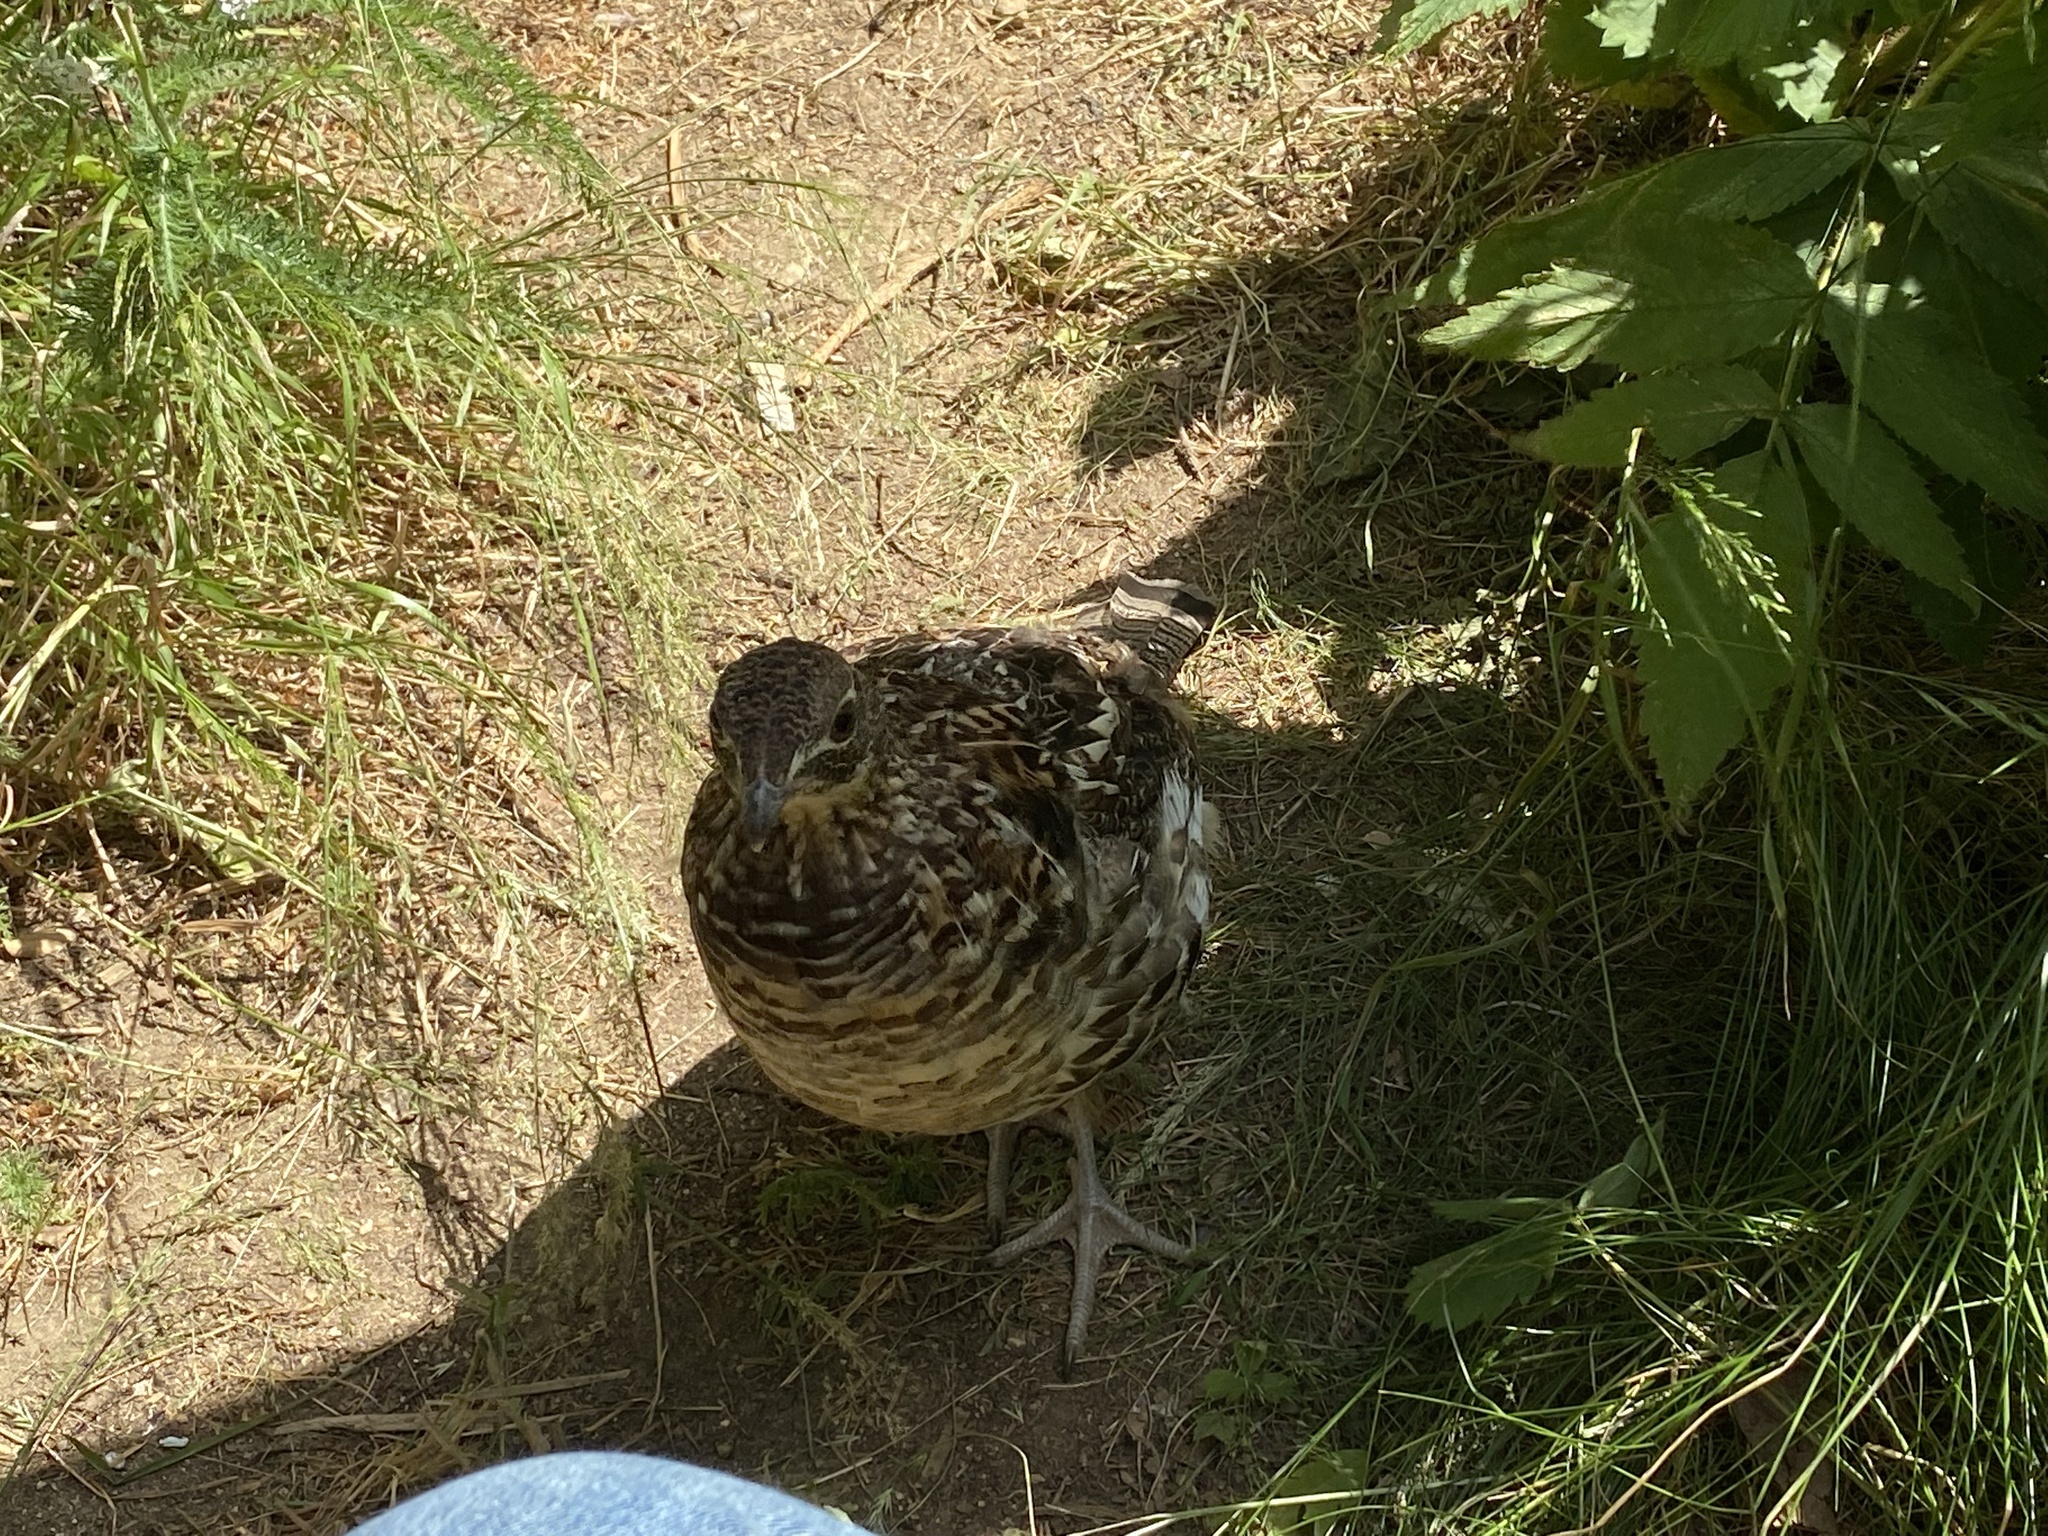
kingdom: Animalia
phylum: Chordata
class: Aves
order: Galliformes
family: Phasianidae
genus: Bonasa
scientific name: Bonasa umbellus
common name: Ruffed grouse
